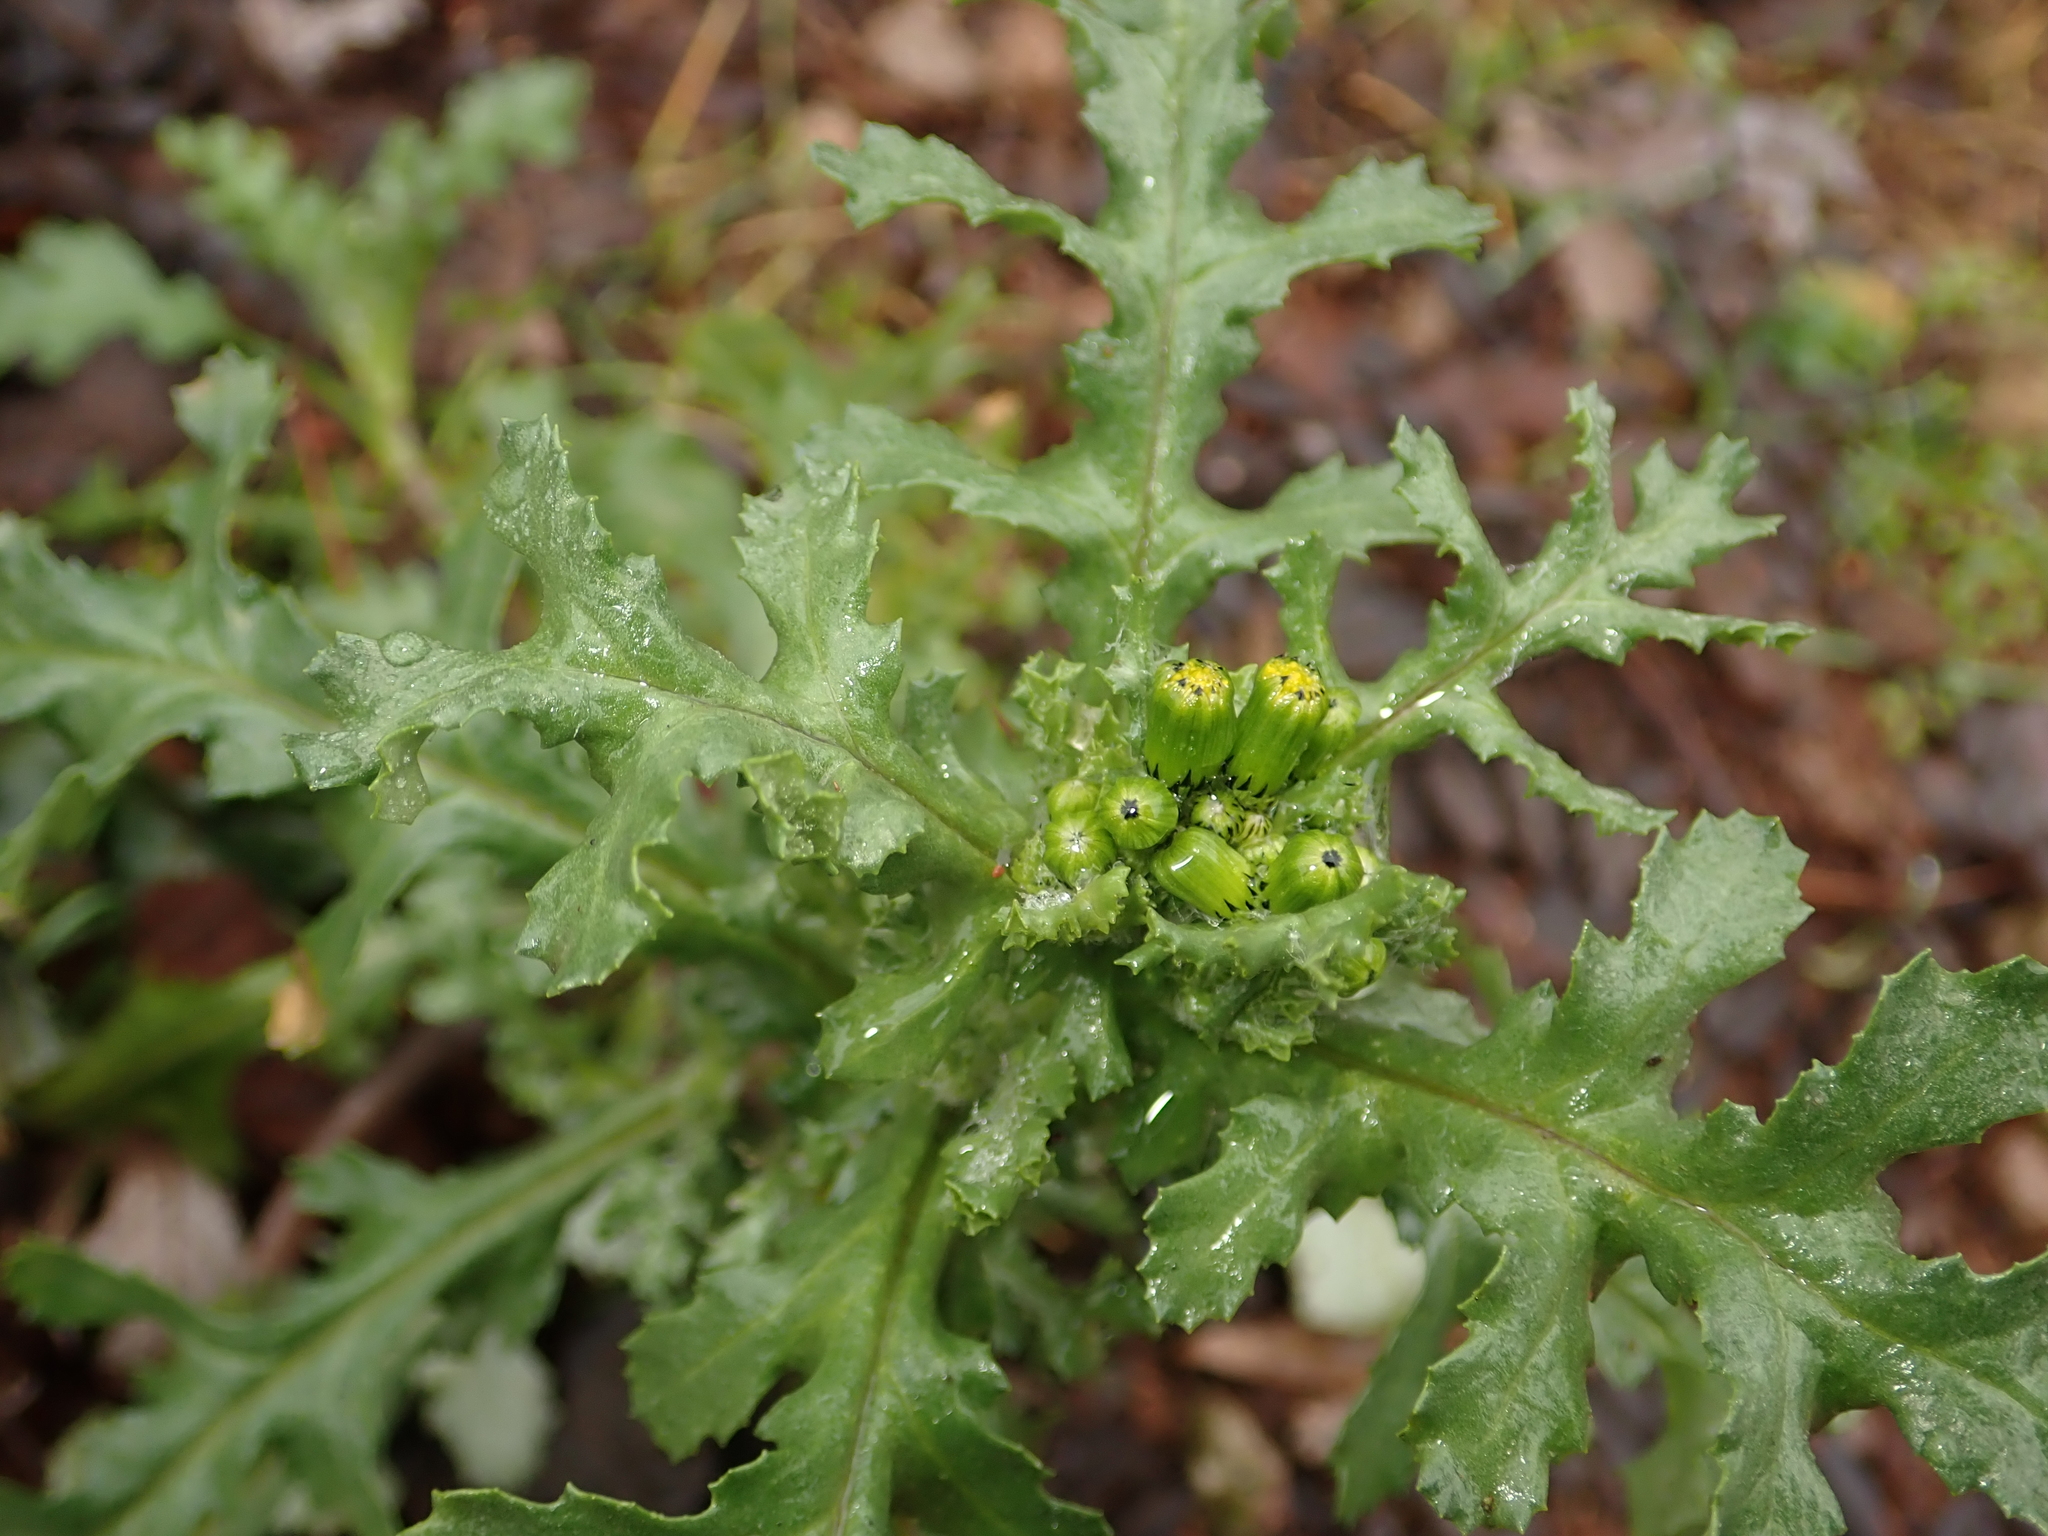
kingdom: Plantae
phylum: Tracheophyta
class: Magnoliopsida
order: Asterales
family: Asteraceae
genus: Senecio
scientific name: Senecio vulgaris
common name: Old-man-in-the-spring
